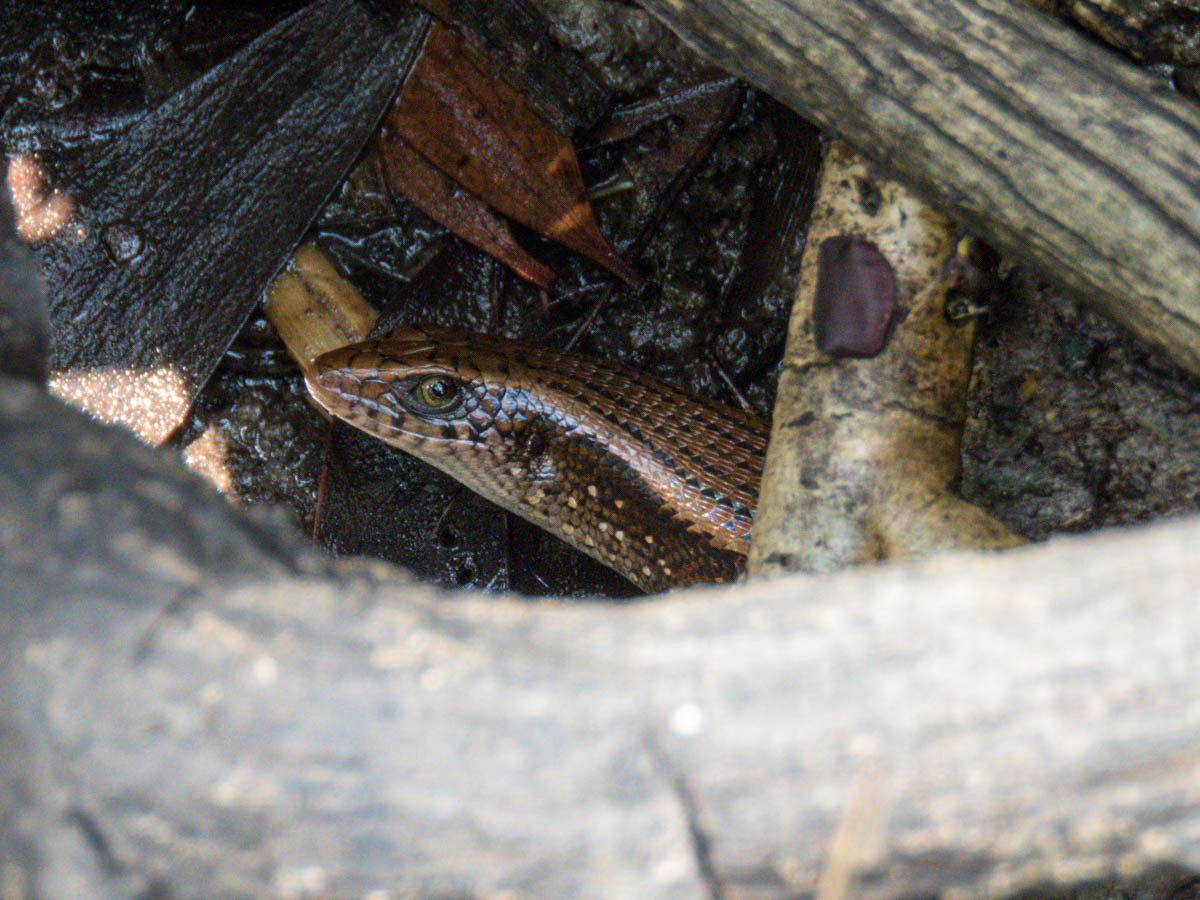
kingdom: Animalia
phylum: Chordata
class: Squamata
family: Scincidae
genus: Eutropis
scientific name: Eutropis multifasciata
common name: Common mabuya
